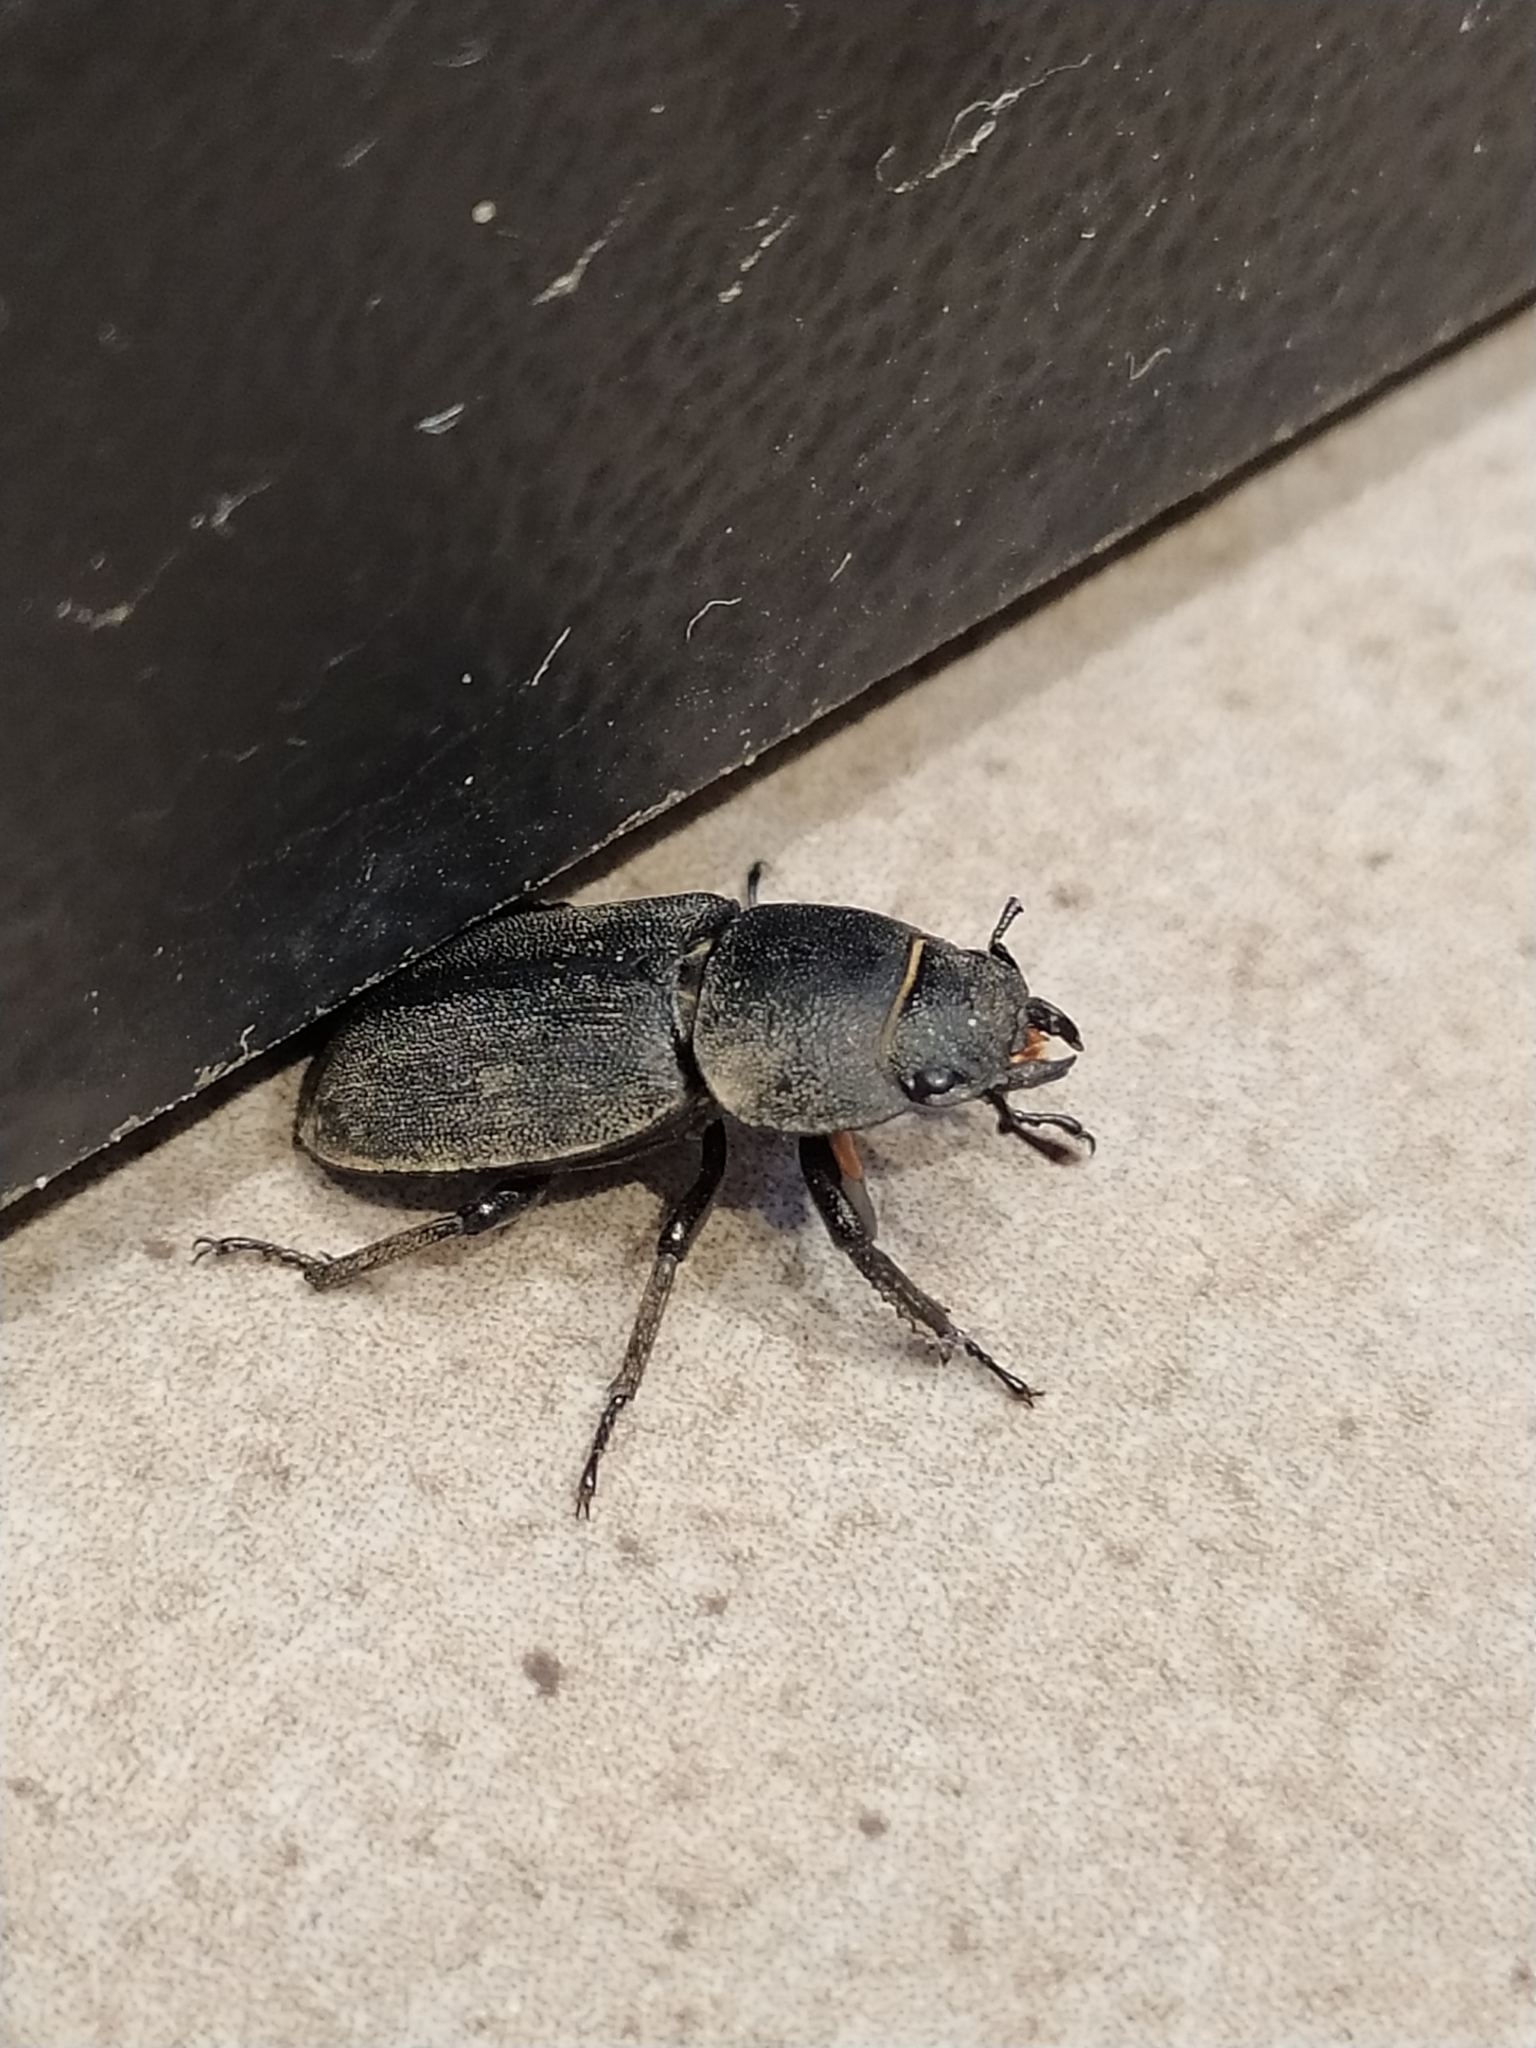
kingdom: Animalia
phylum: Arthropoda
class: Insecta
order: Coleoptera
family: Lucanidae
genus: Dorcus
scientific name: Dorcus parallelipipedus
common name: Lesser stag beetle
